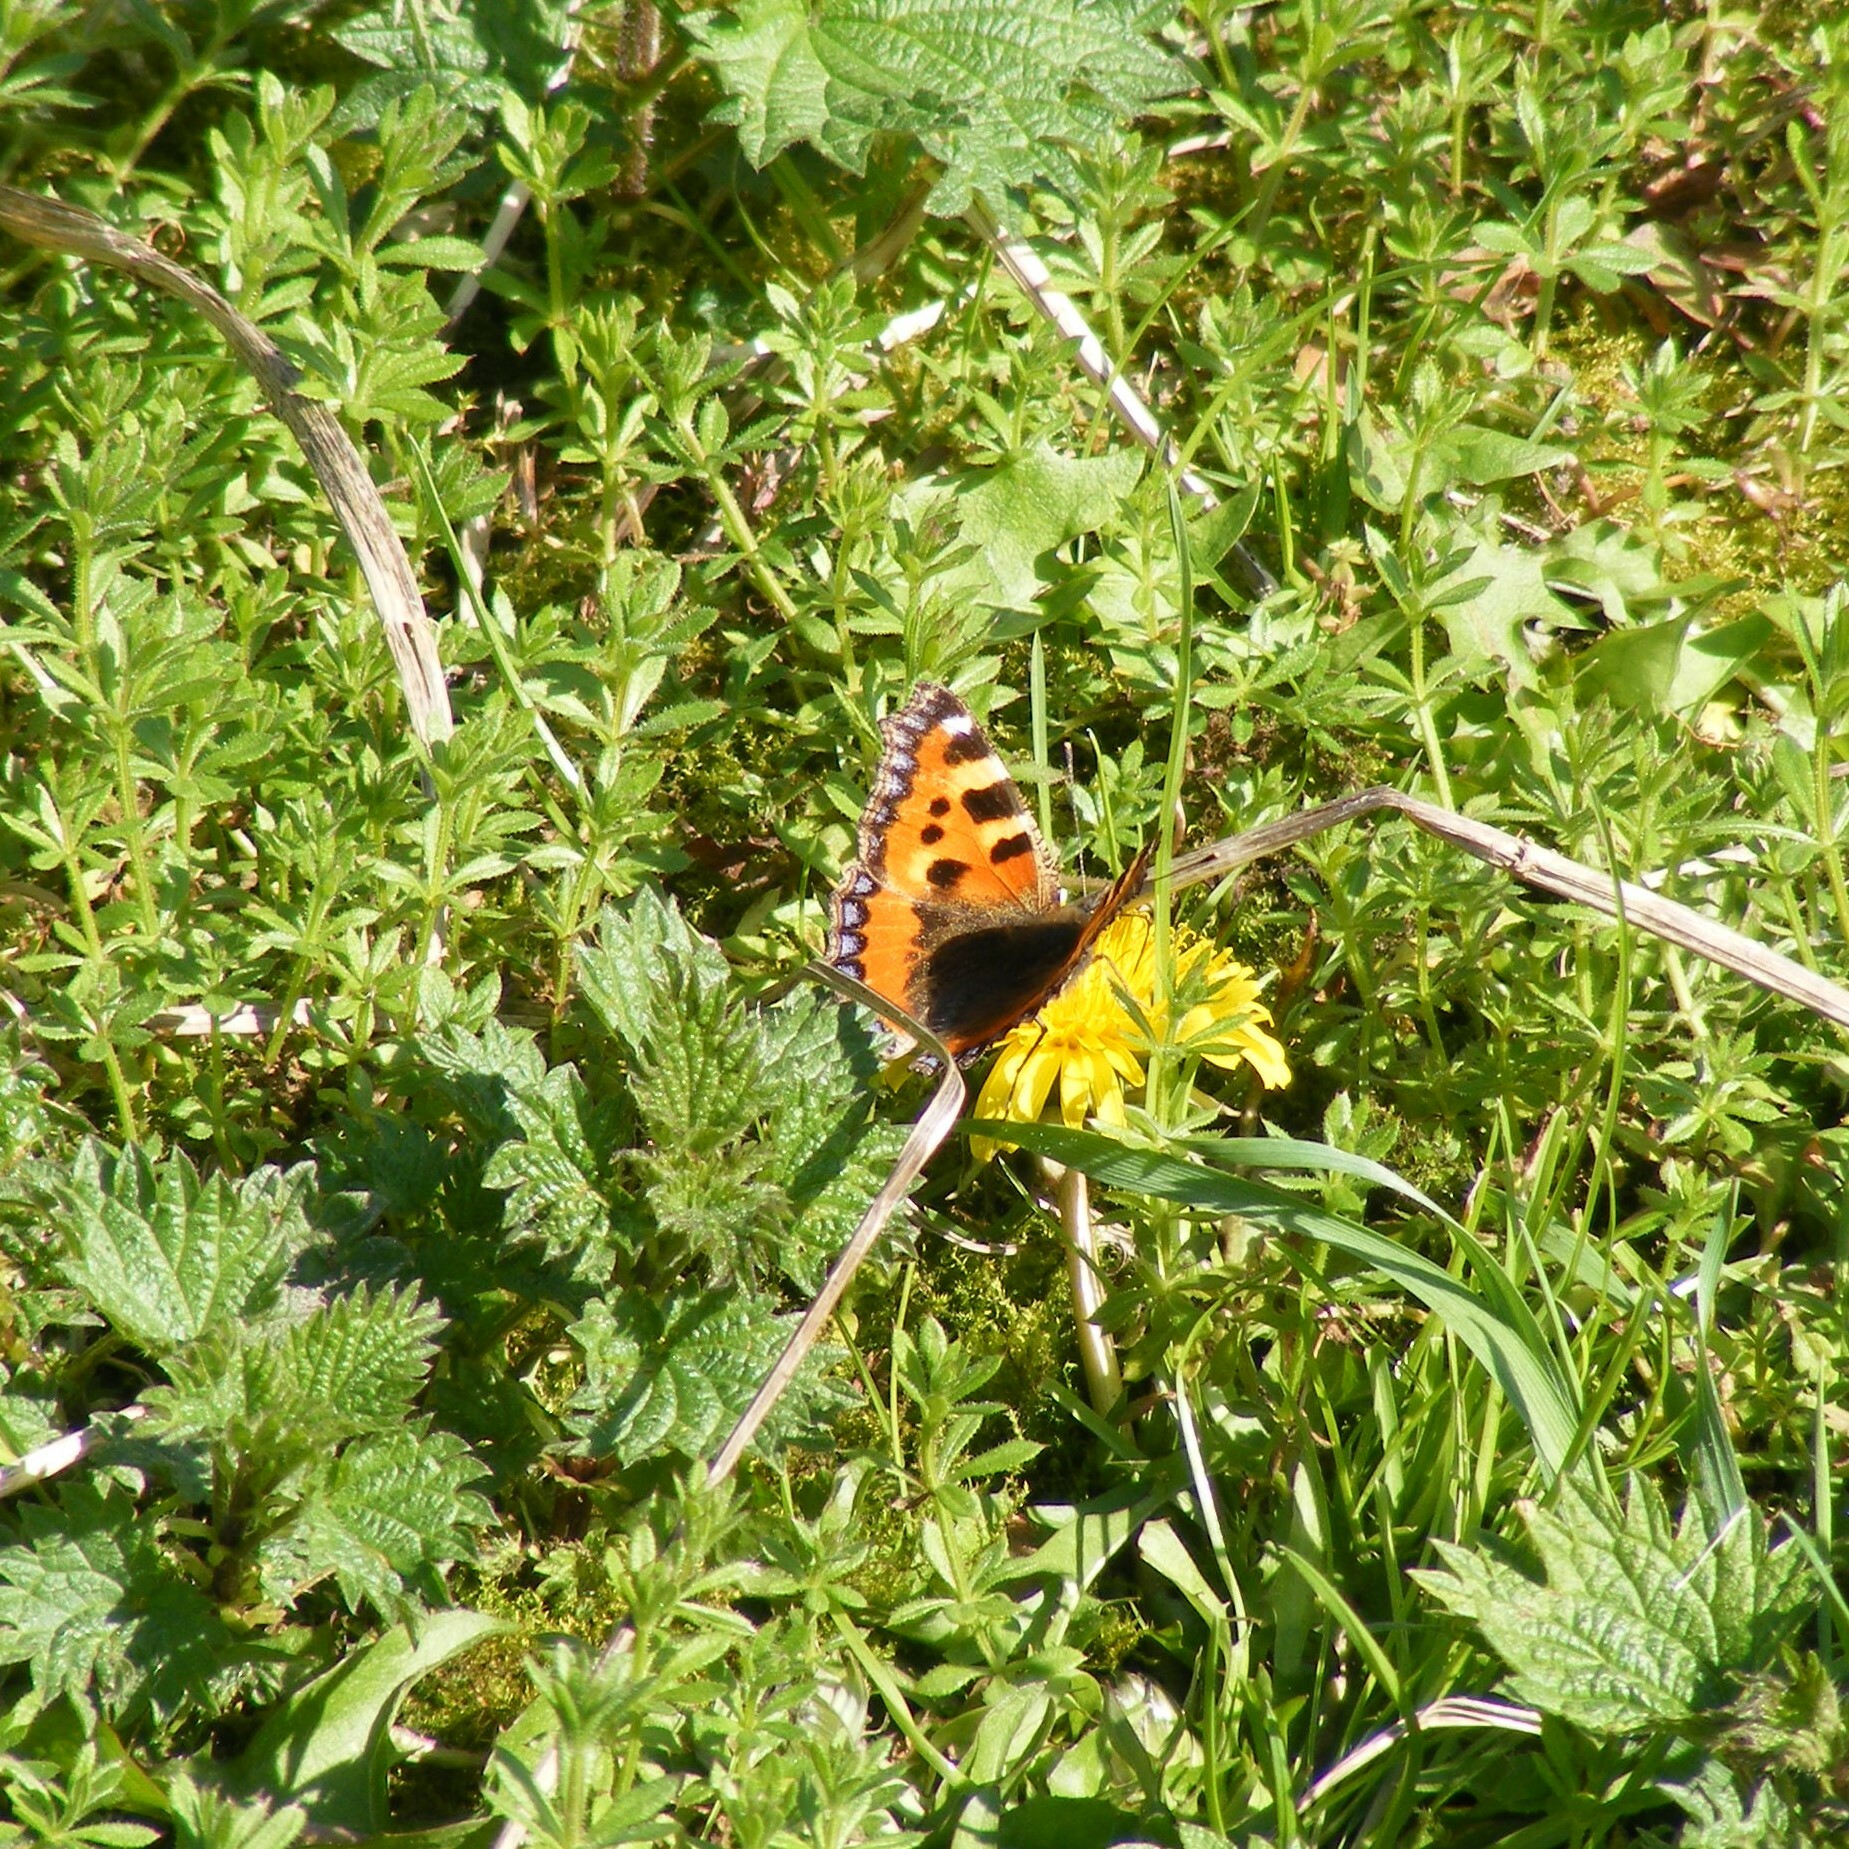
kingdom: Animalia
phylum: Arthropoda
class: Insecta
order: Lepidoptera
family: Nymphalidae
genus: Aglais
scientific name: Aglais urticae
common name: Small tortoiseshell
